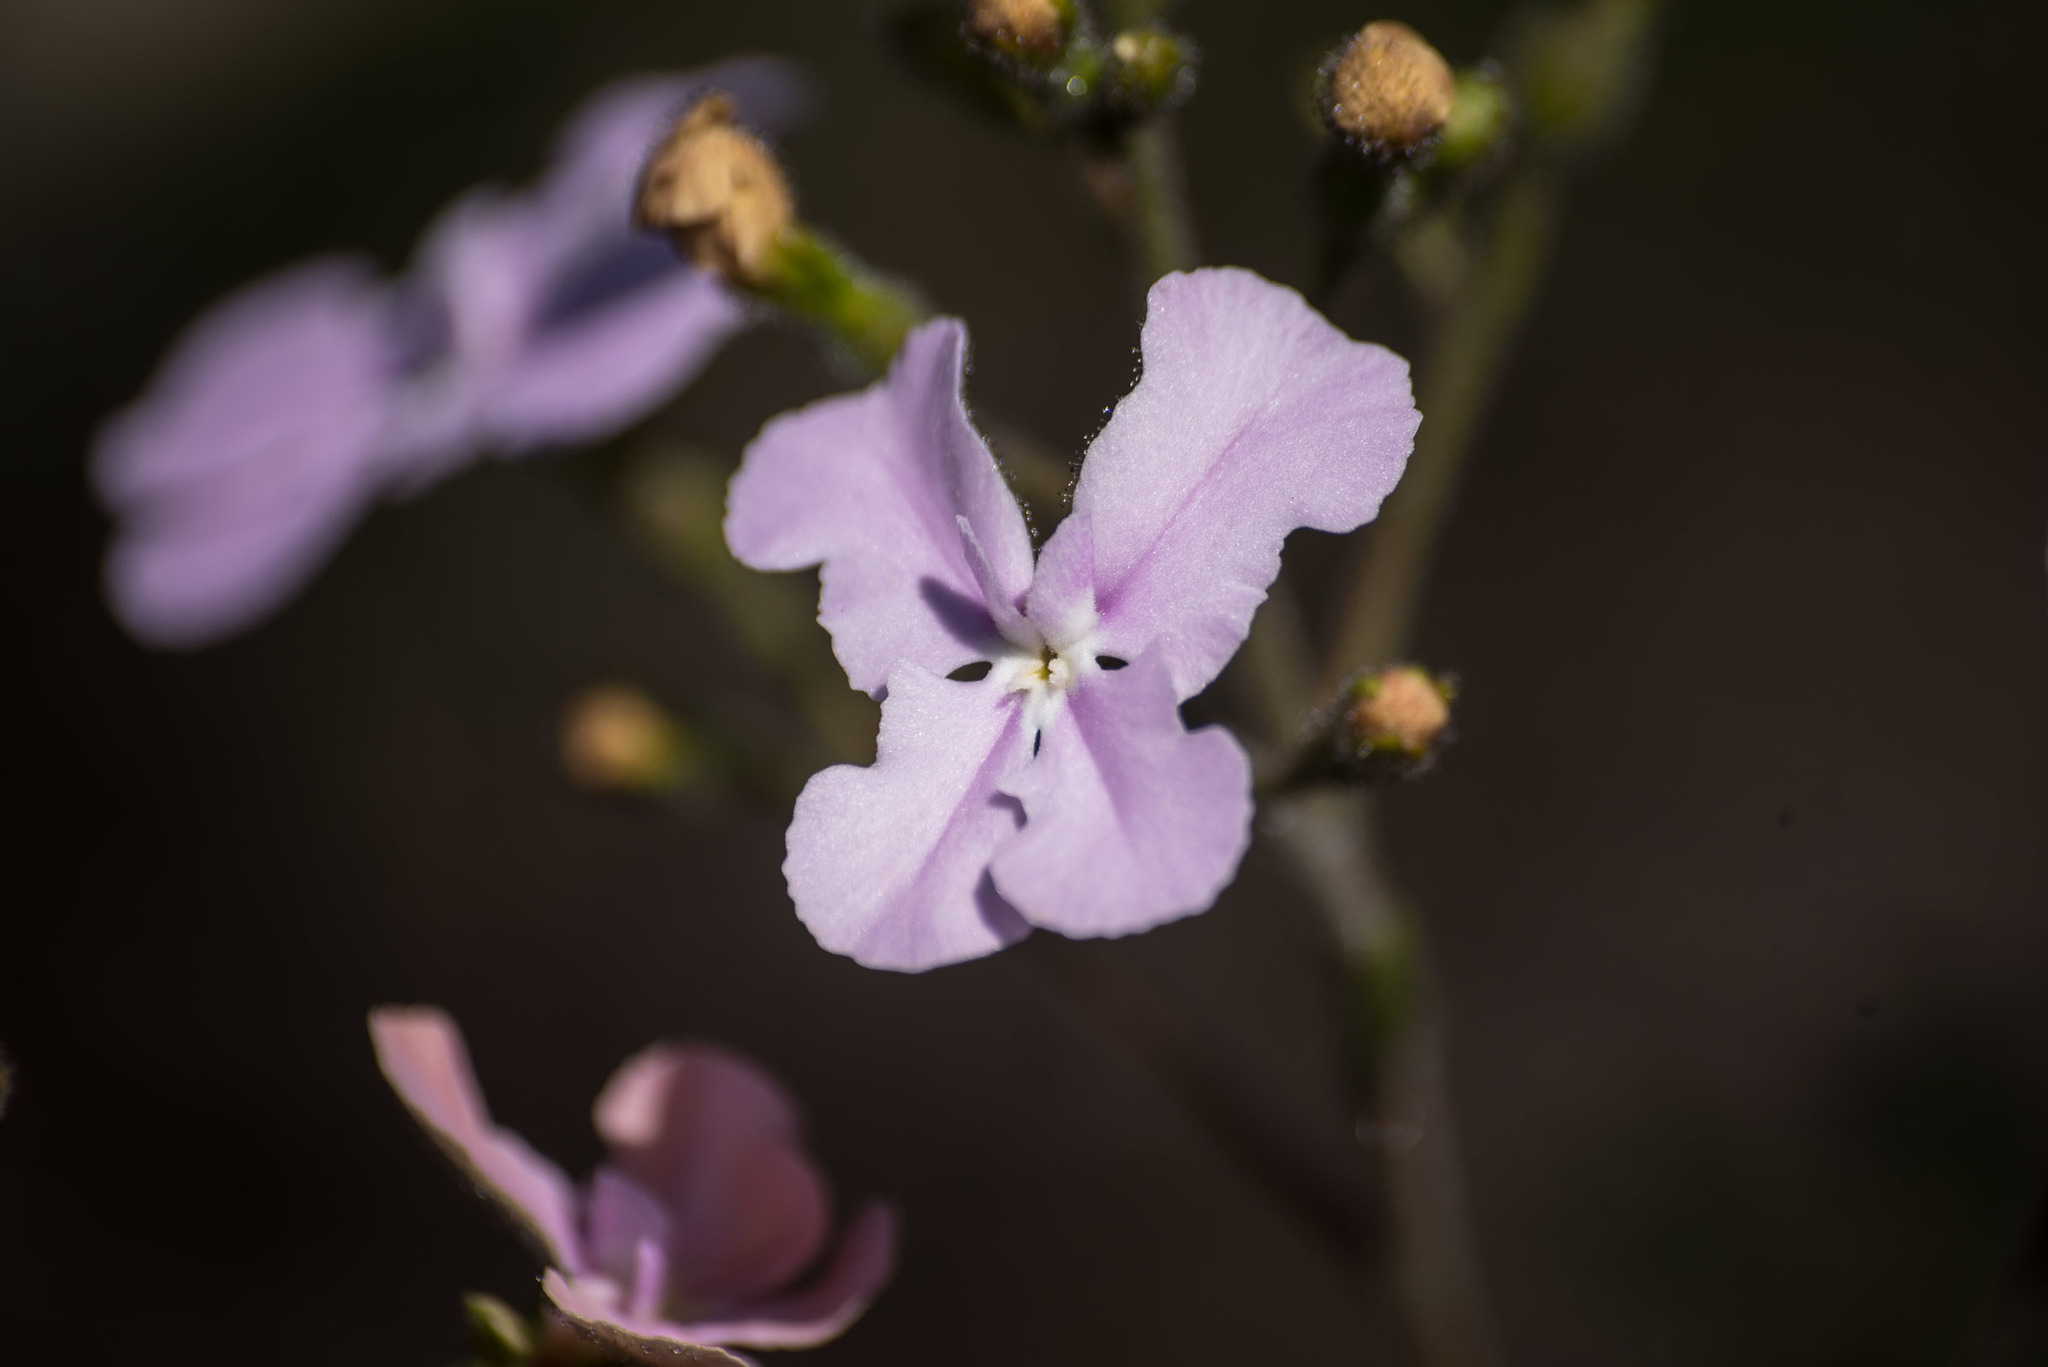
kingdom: Plantae
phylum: Tracheophyta
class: Magnoliopsida
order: Asterales
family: Stylidiaceae
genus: Stylidium
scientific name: Stylidium affine
